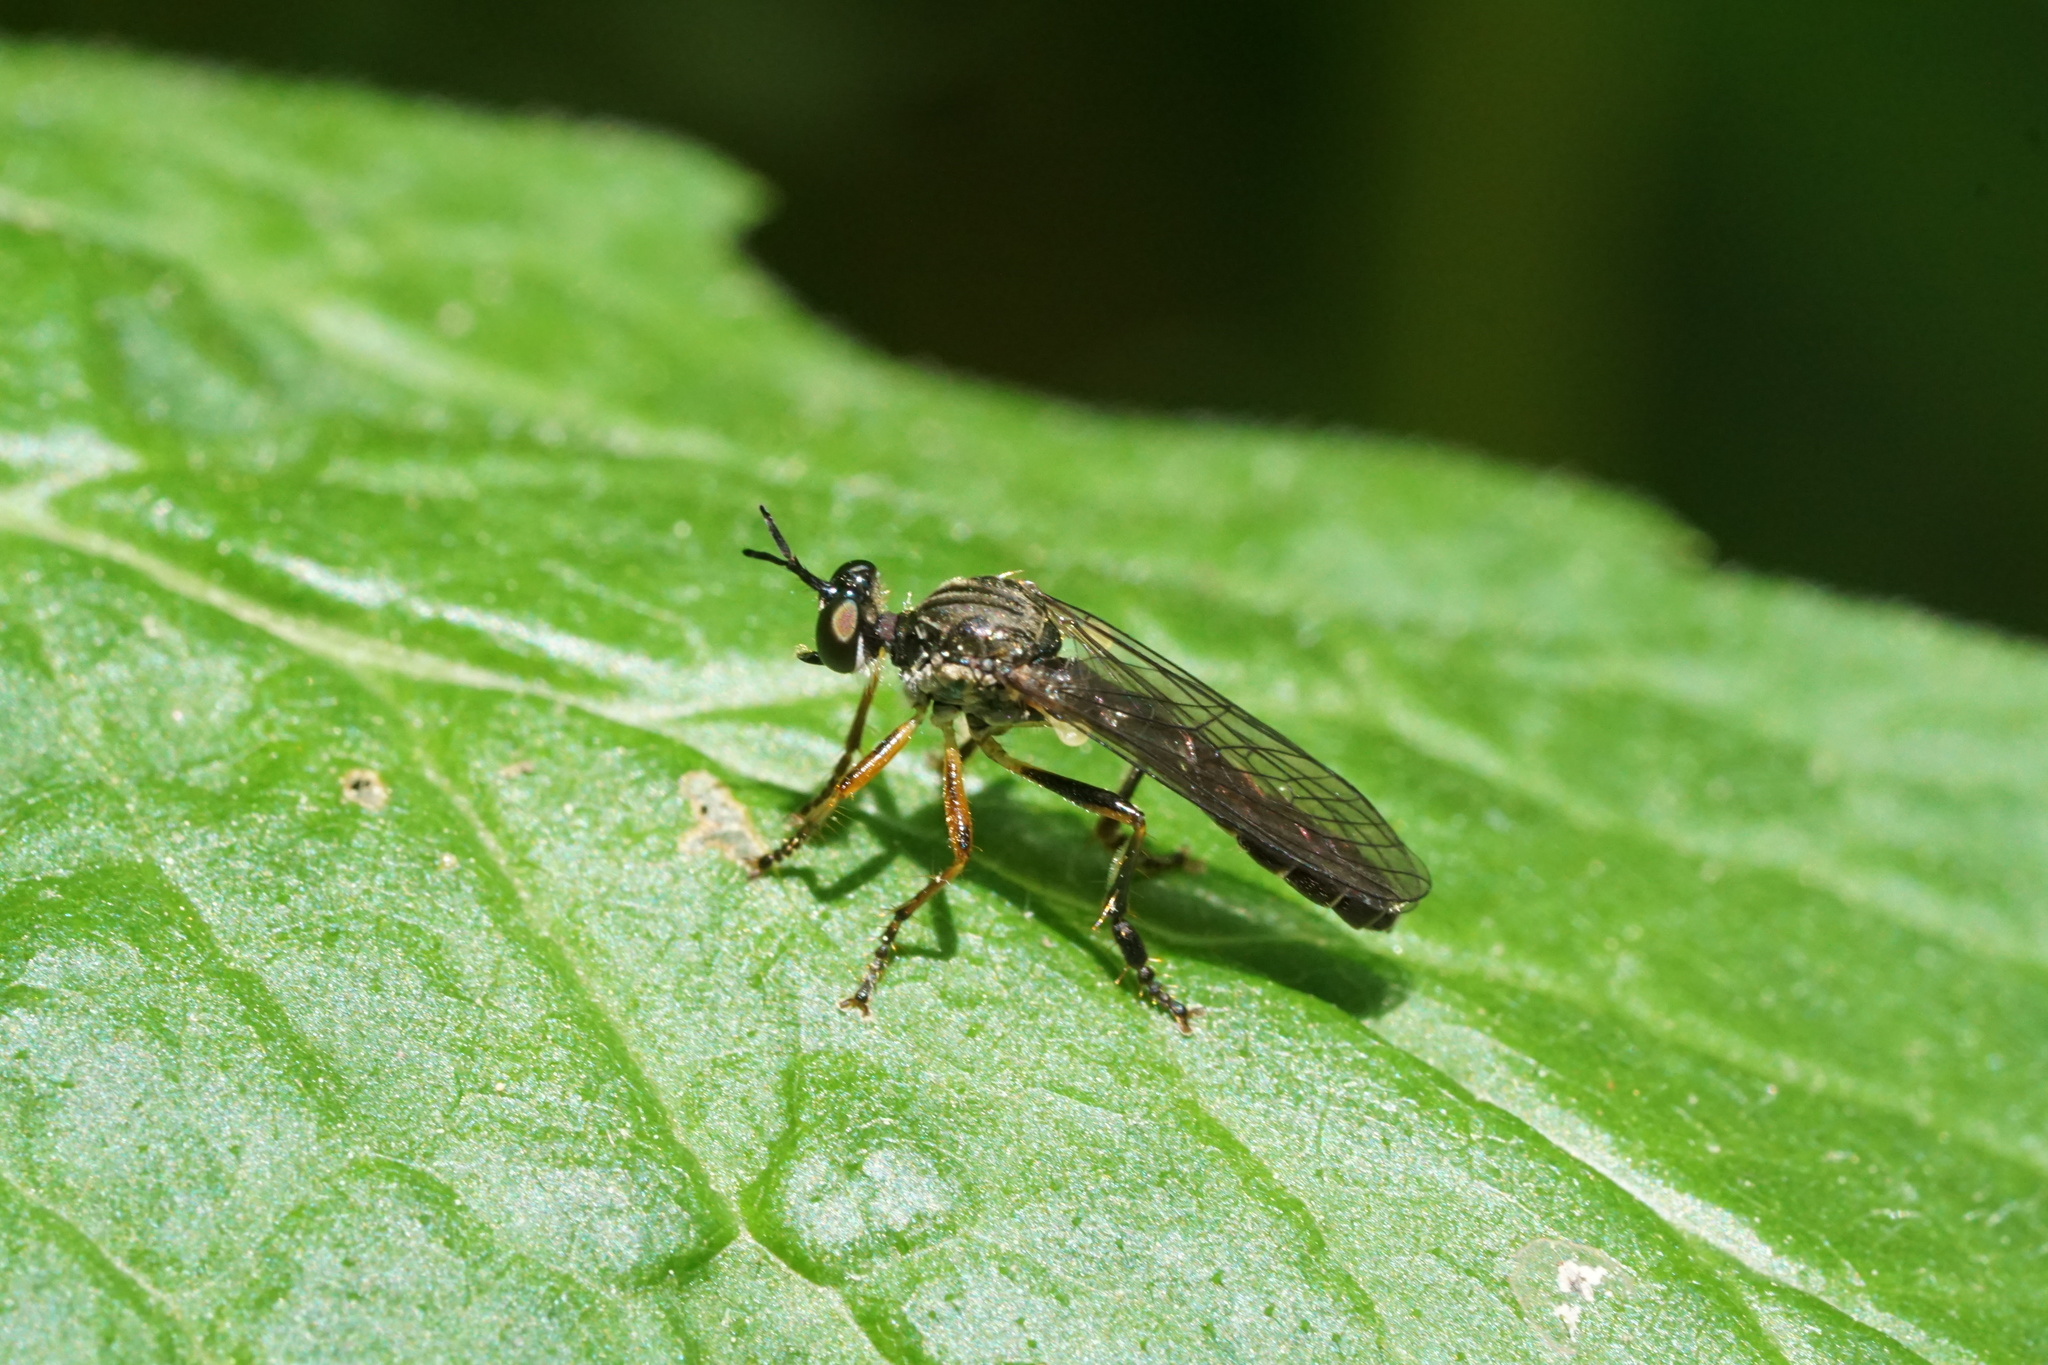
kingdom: Animalia
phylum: Arthropoda
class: Insecta
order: Diptera
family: Asilidae
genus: Dioctria
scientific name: Dioctria hyalipennis
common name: Stripe-legged robberfly
